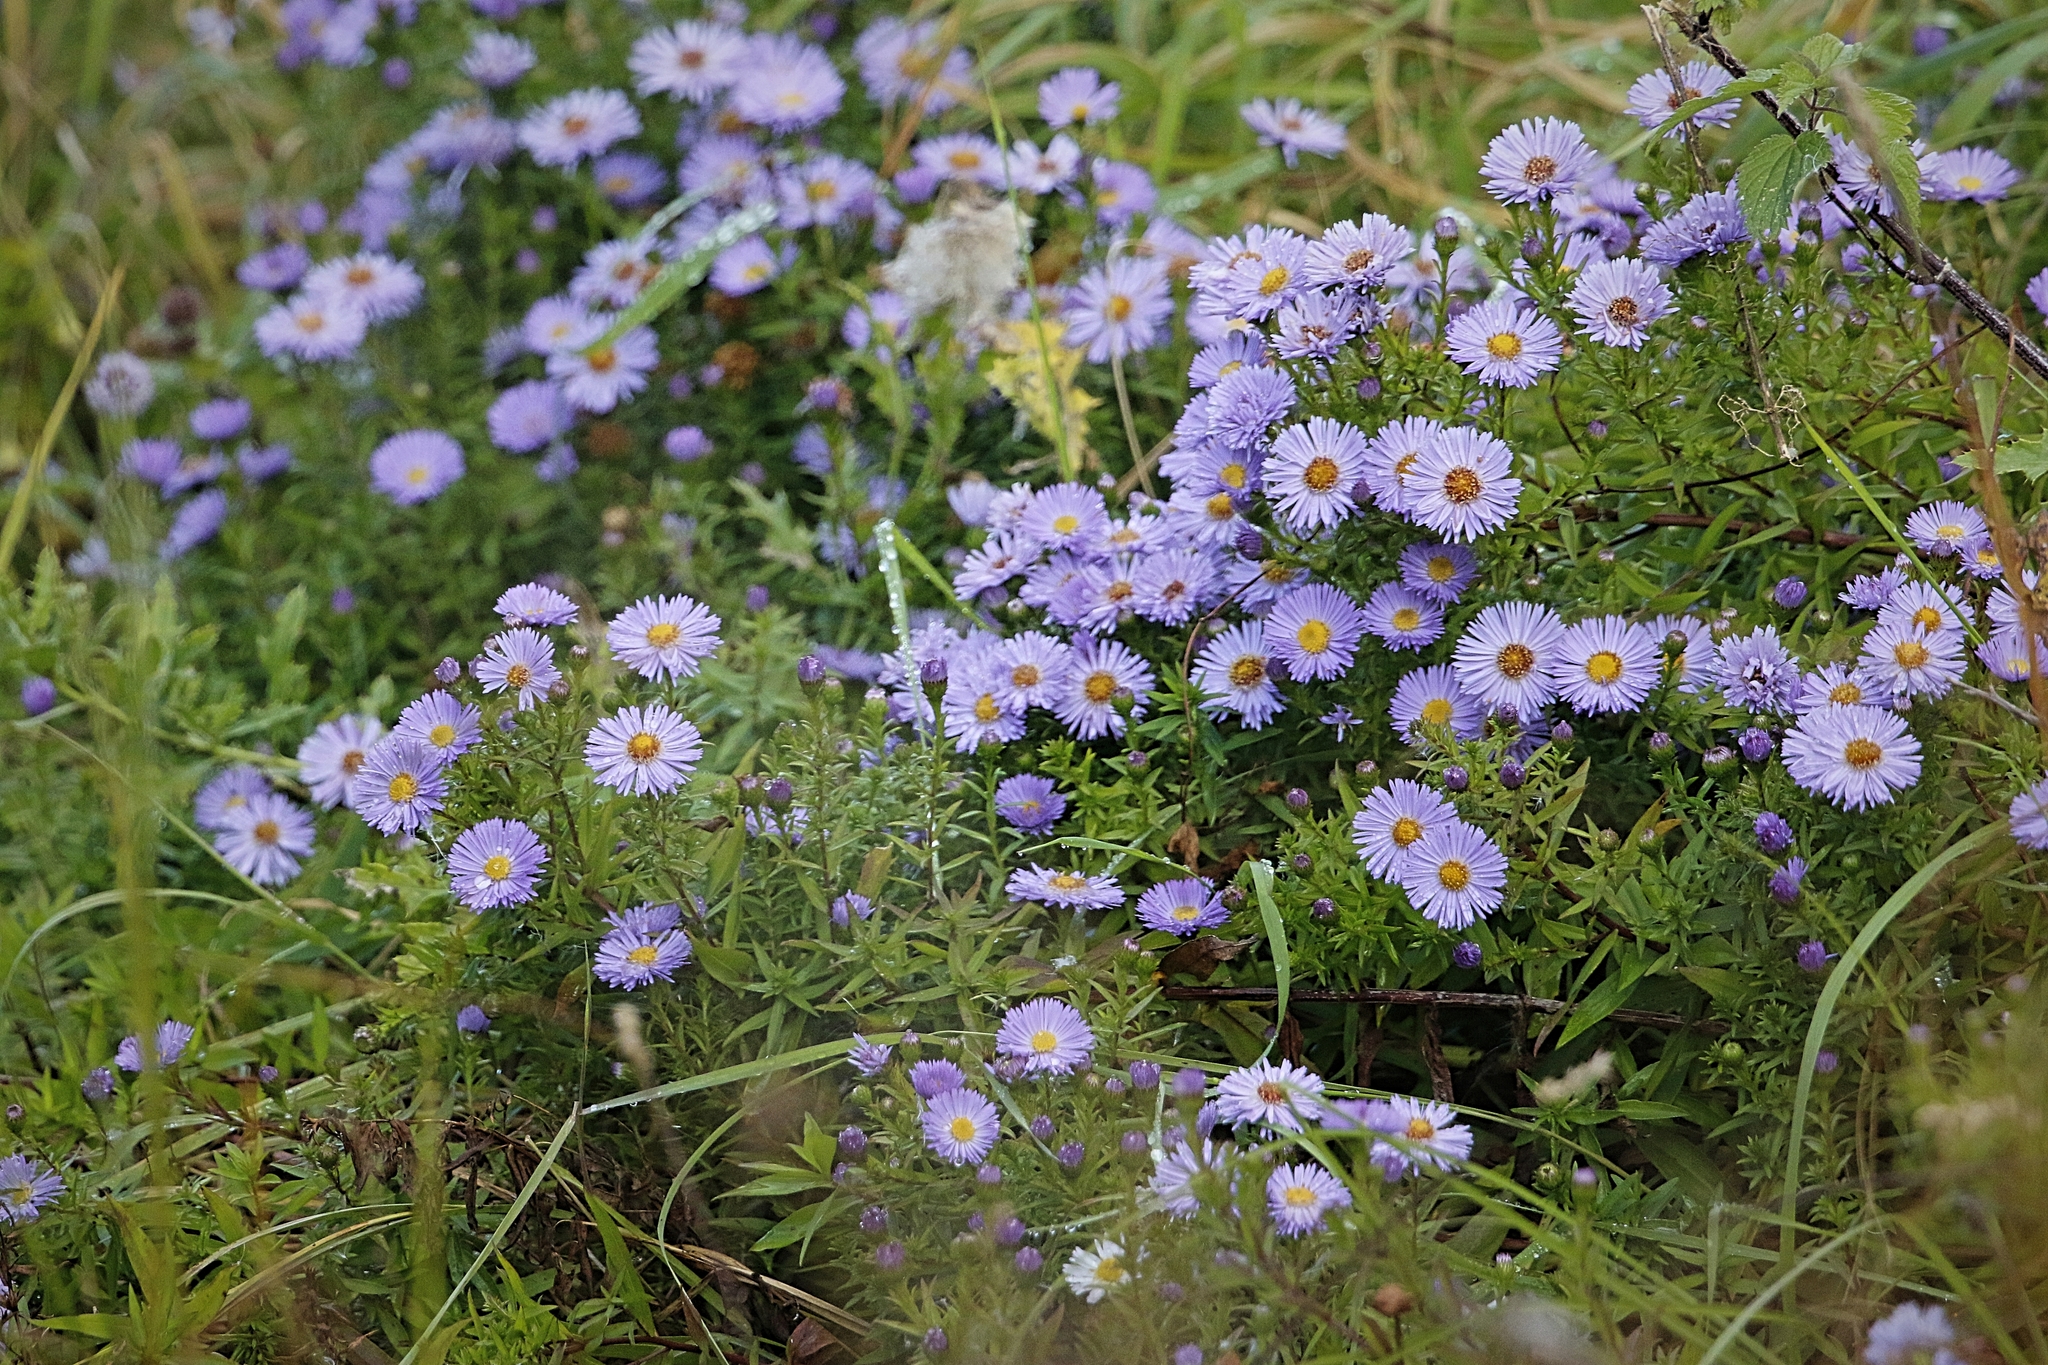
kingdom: Plantae
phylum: Tracheophyta
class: Magnoliopsida
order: Asterales
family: Asteraceae
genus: Symphyotrichum
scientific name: Symphyotrichum novi-belgii
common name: Michaelmas daisy
